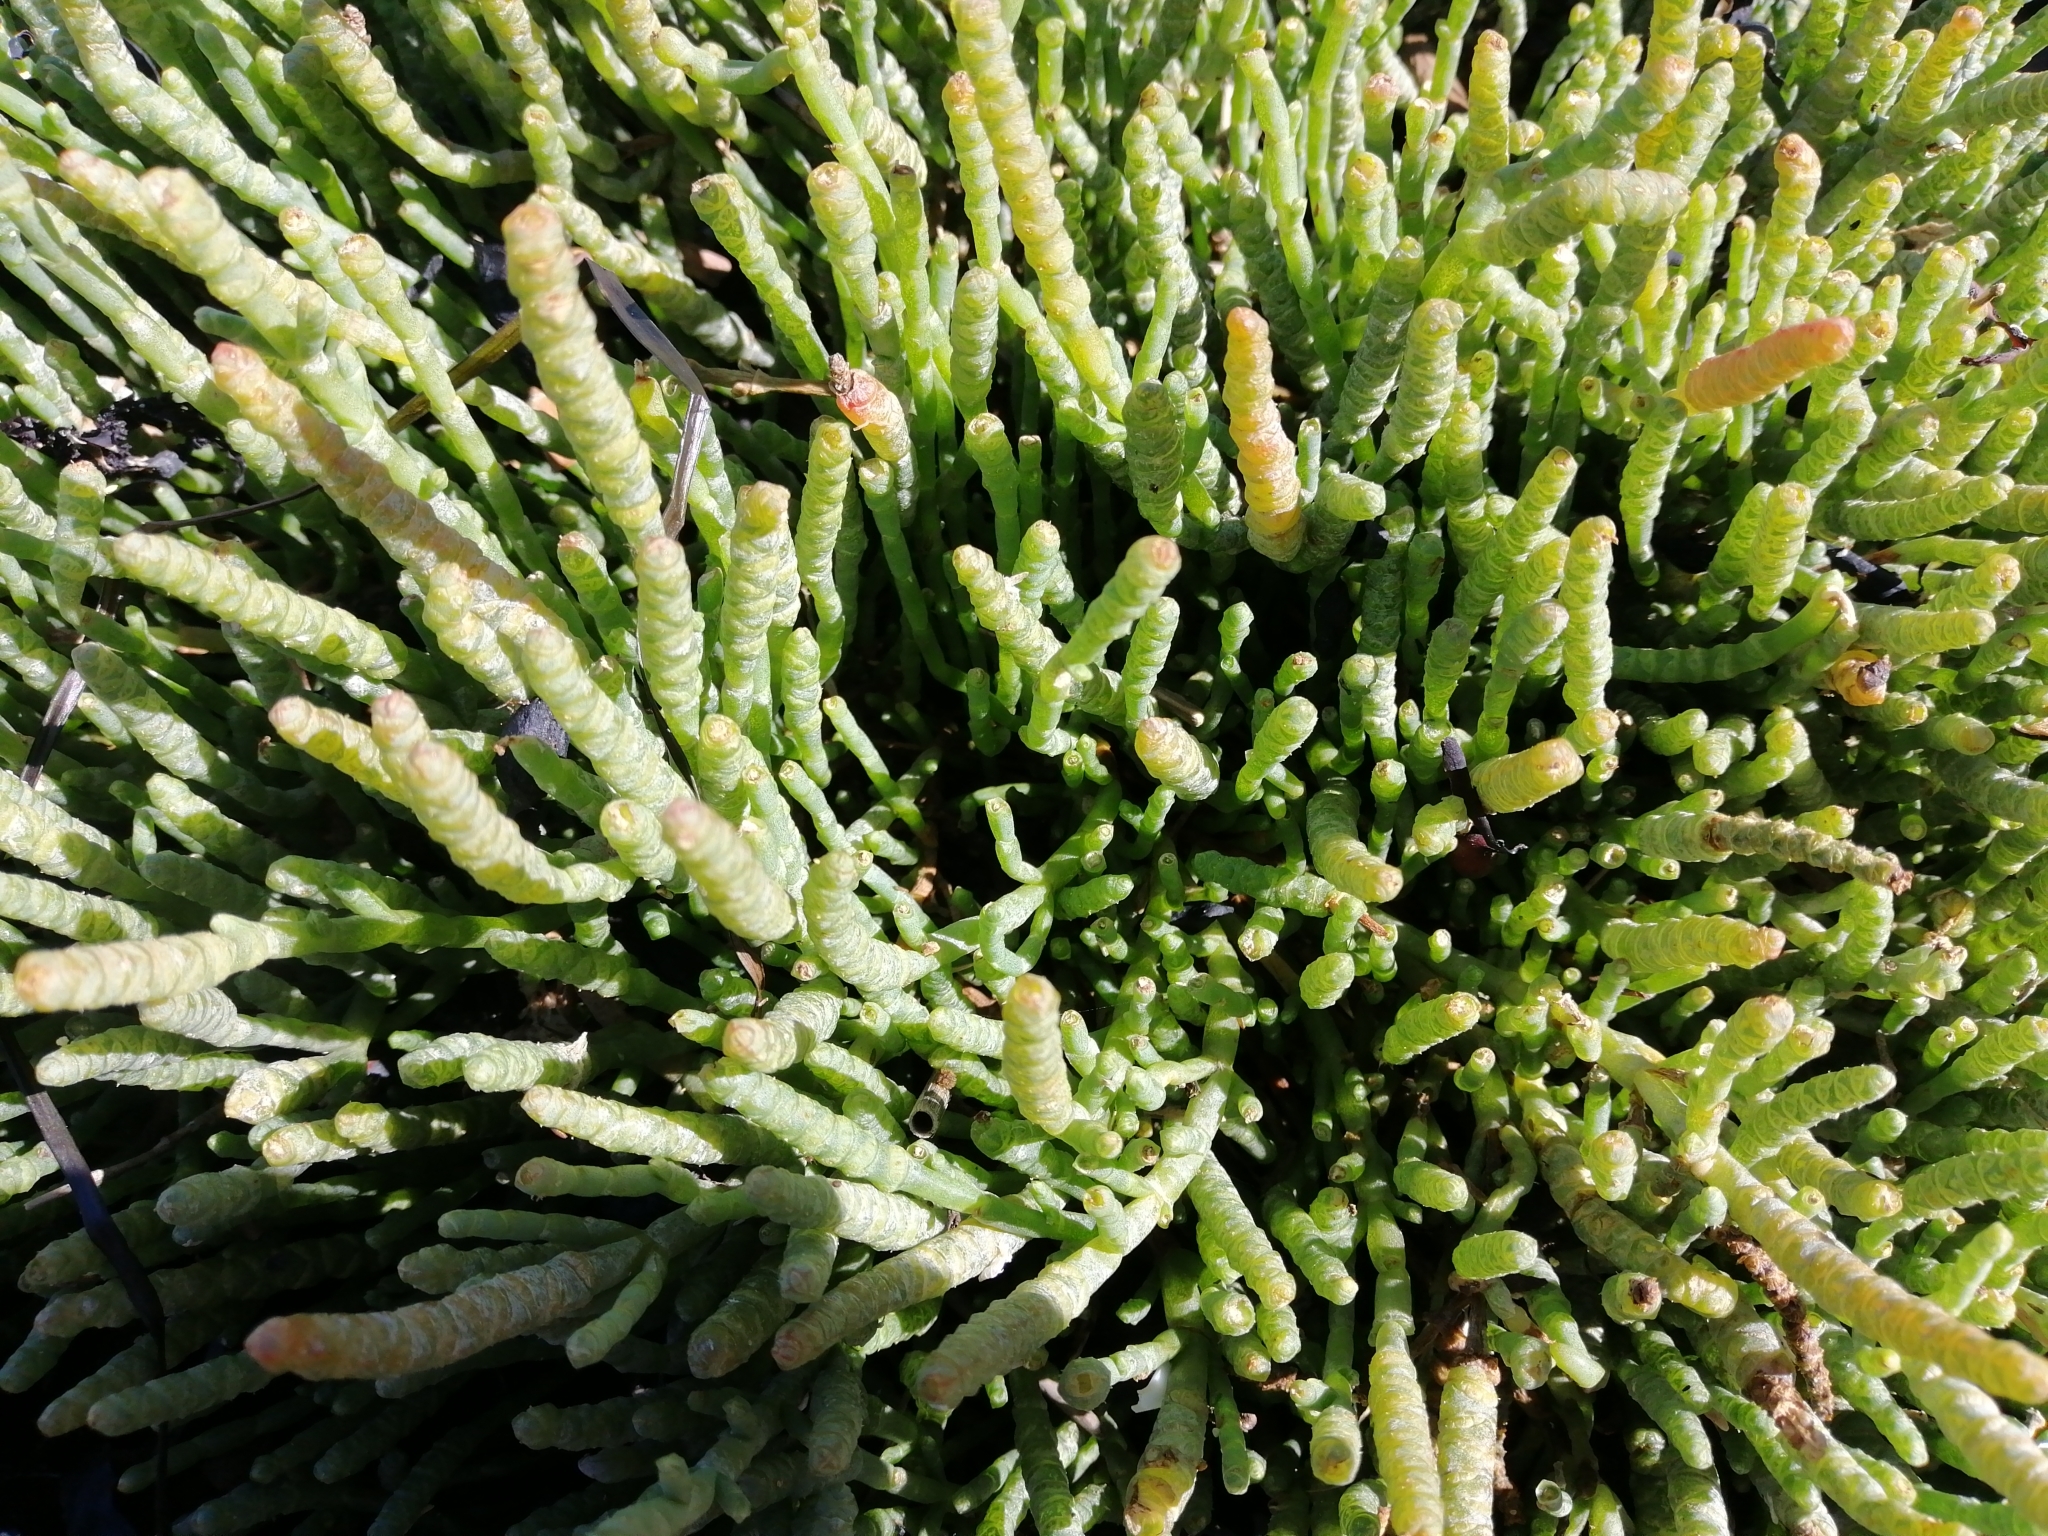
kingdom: Plantae
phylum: Tracheophyta
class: Magnoliopsida
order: Caryophyllales
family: Amaranthaceae
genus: Salicornia
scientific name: Salicornia quinqueflora
